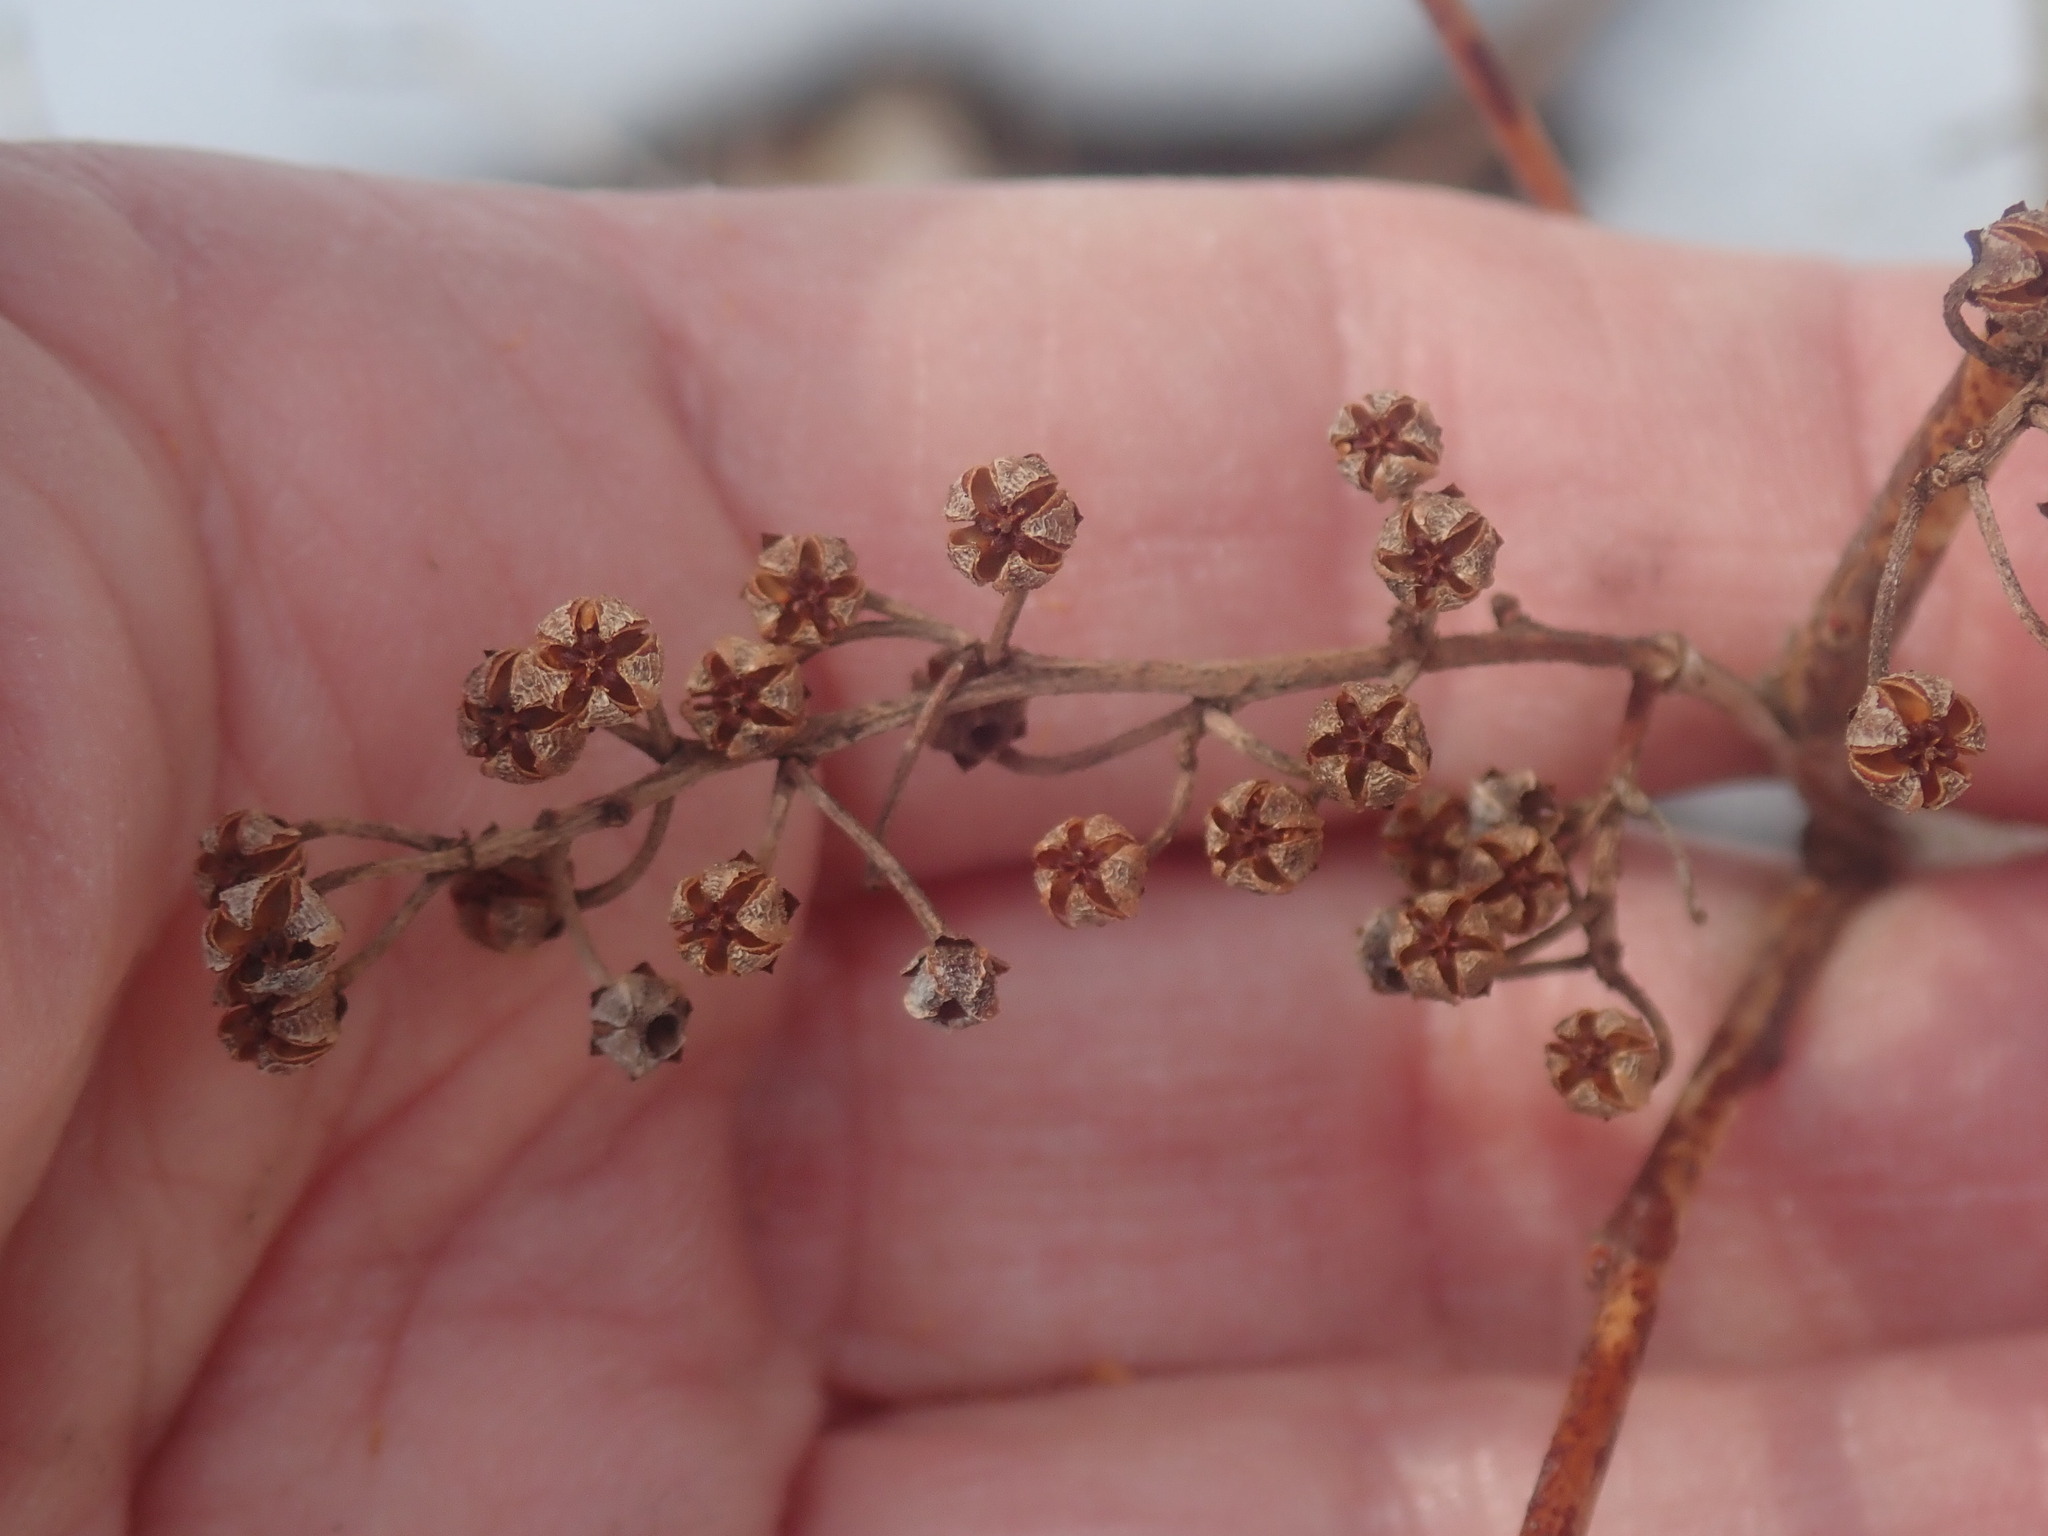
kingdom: Plantae
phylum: Tracheophyta
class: Magnoliopsida
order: Ericales
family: Ericaceae
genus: Lyonia
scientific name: Lyonia ligustrina
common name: Maleberry
